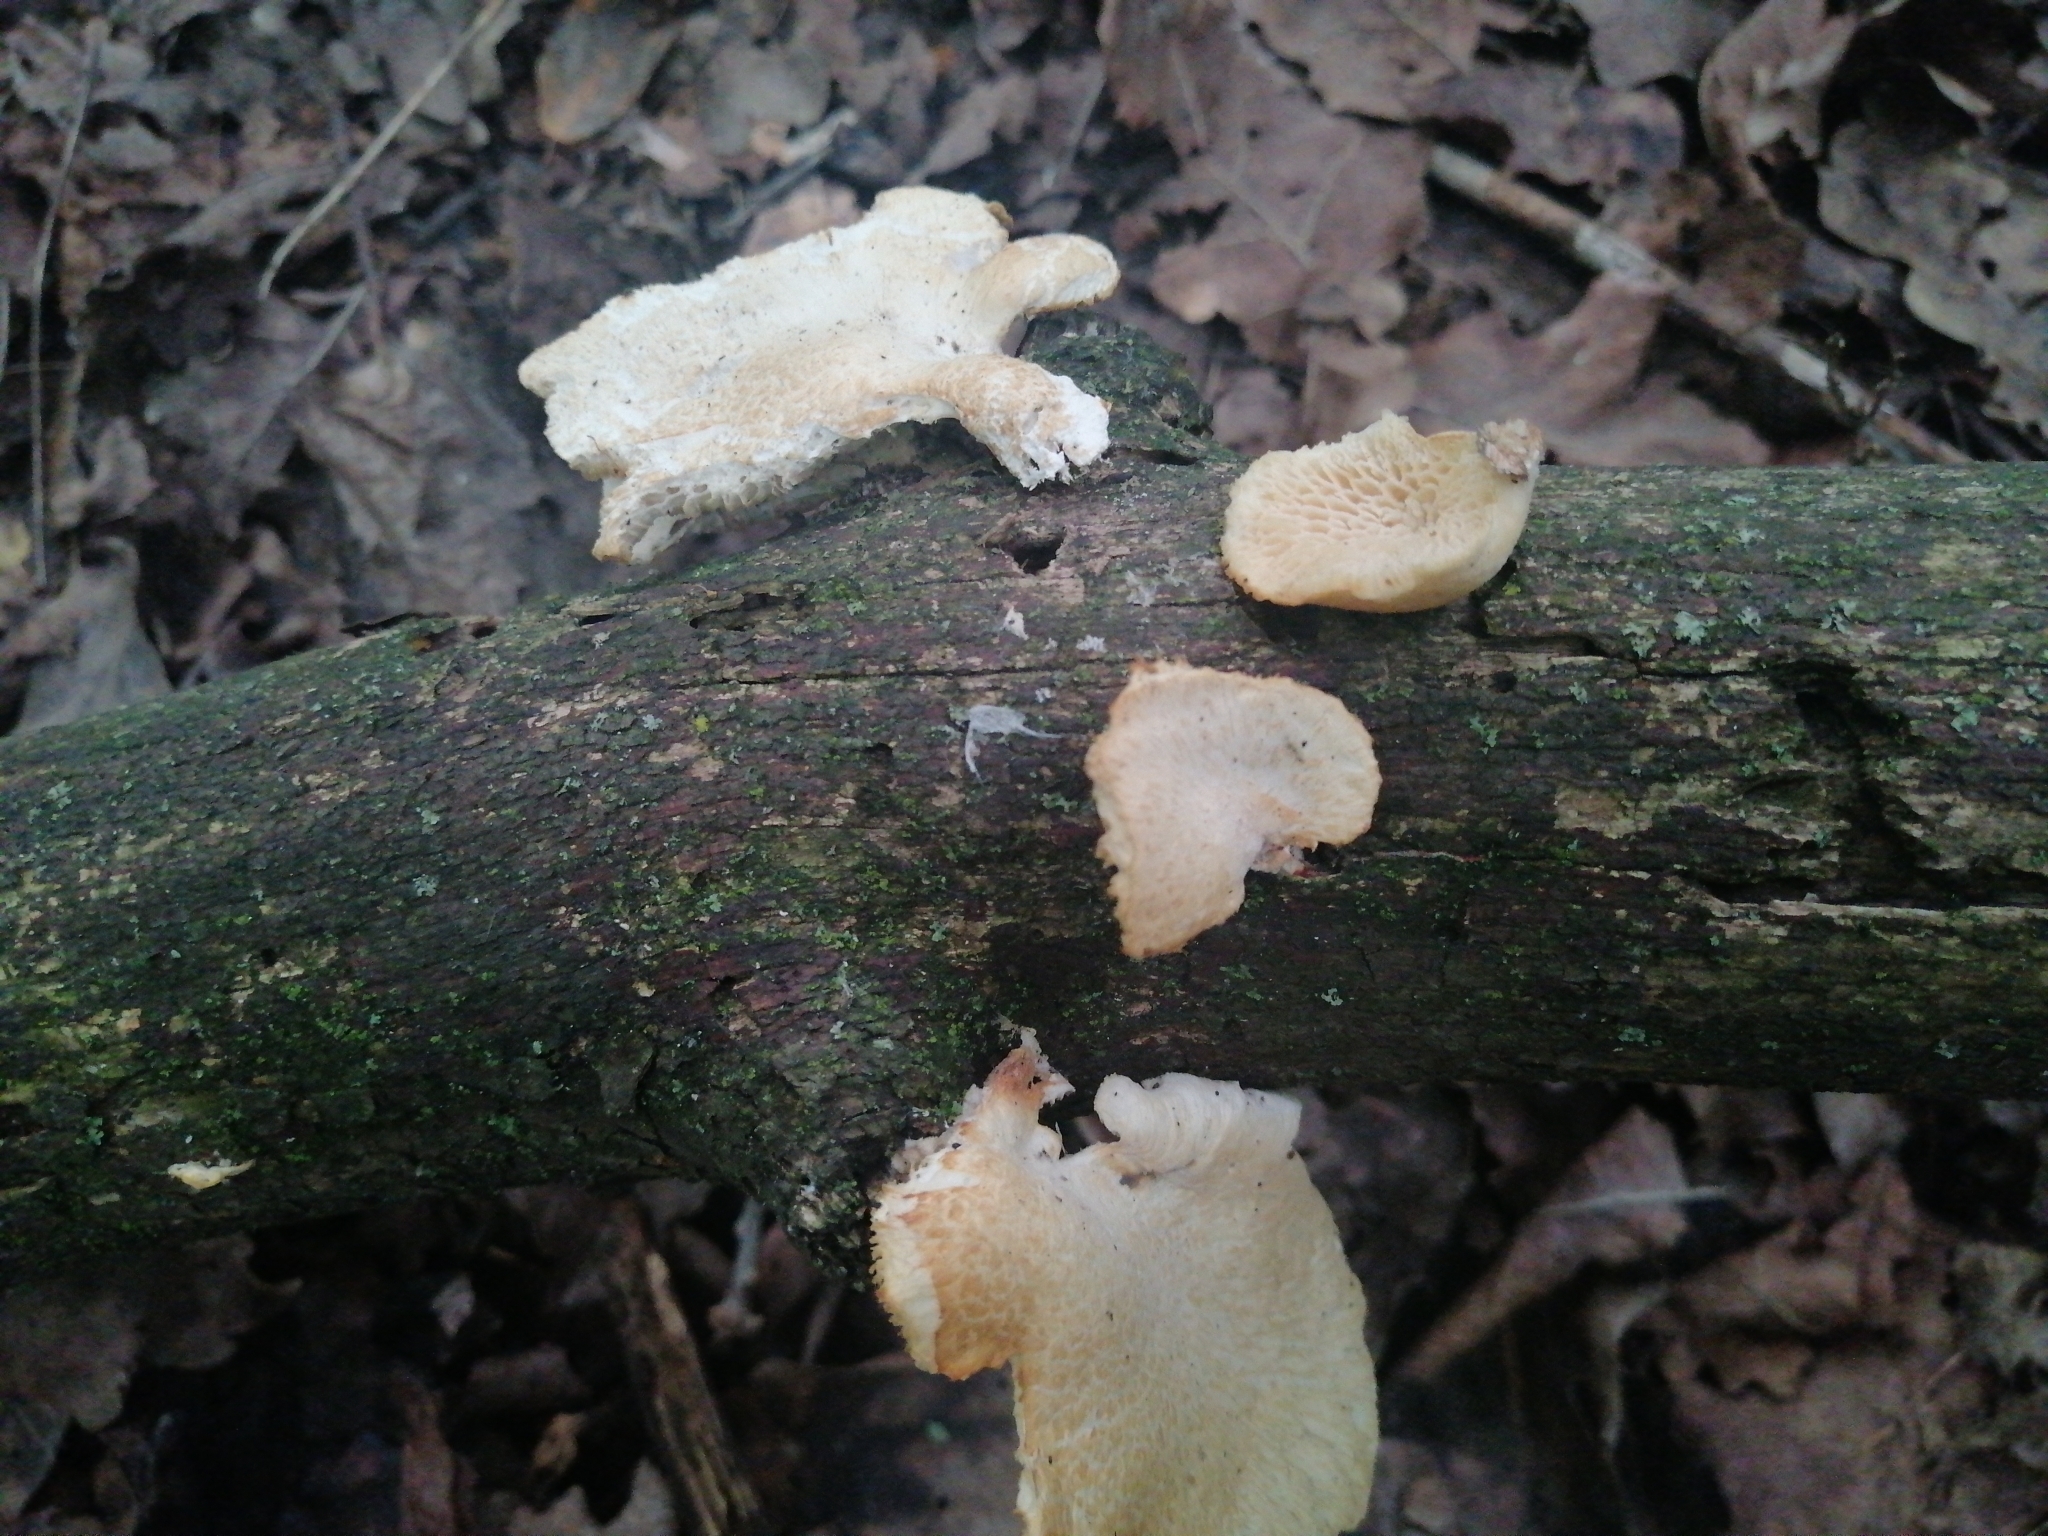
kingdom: Fungi
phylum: Basidiomycota
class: Agaricomycetes
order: Polyporales
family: Polyporaceae
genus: Neofavolus
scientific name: Neofavolus alveolaris
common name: Hexagonal-pored polypore
